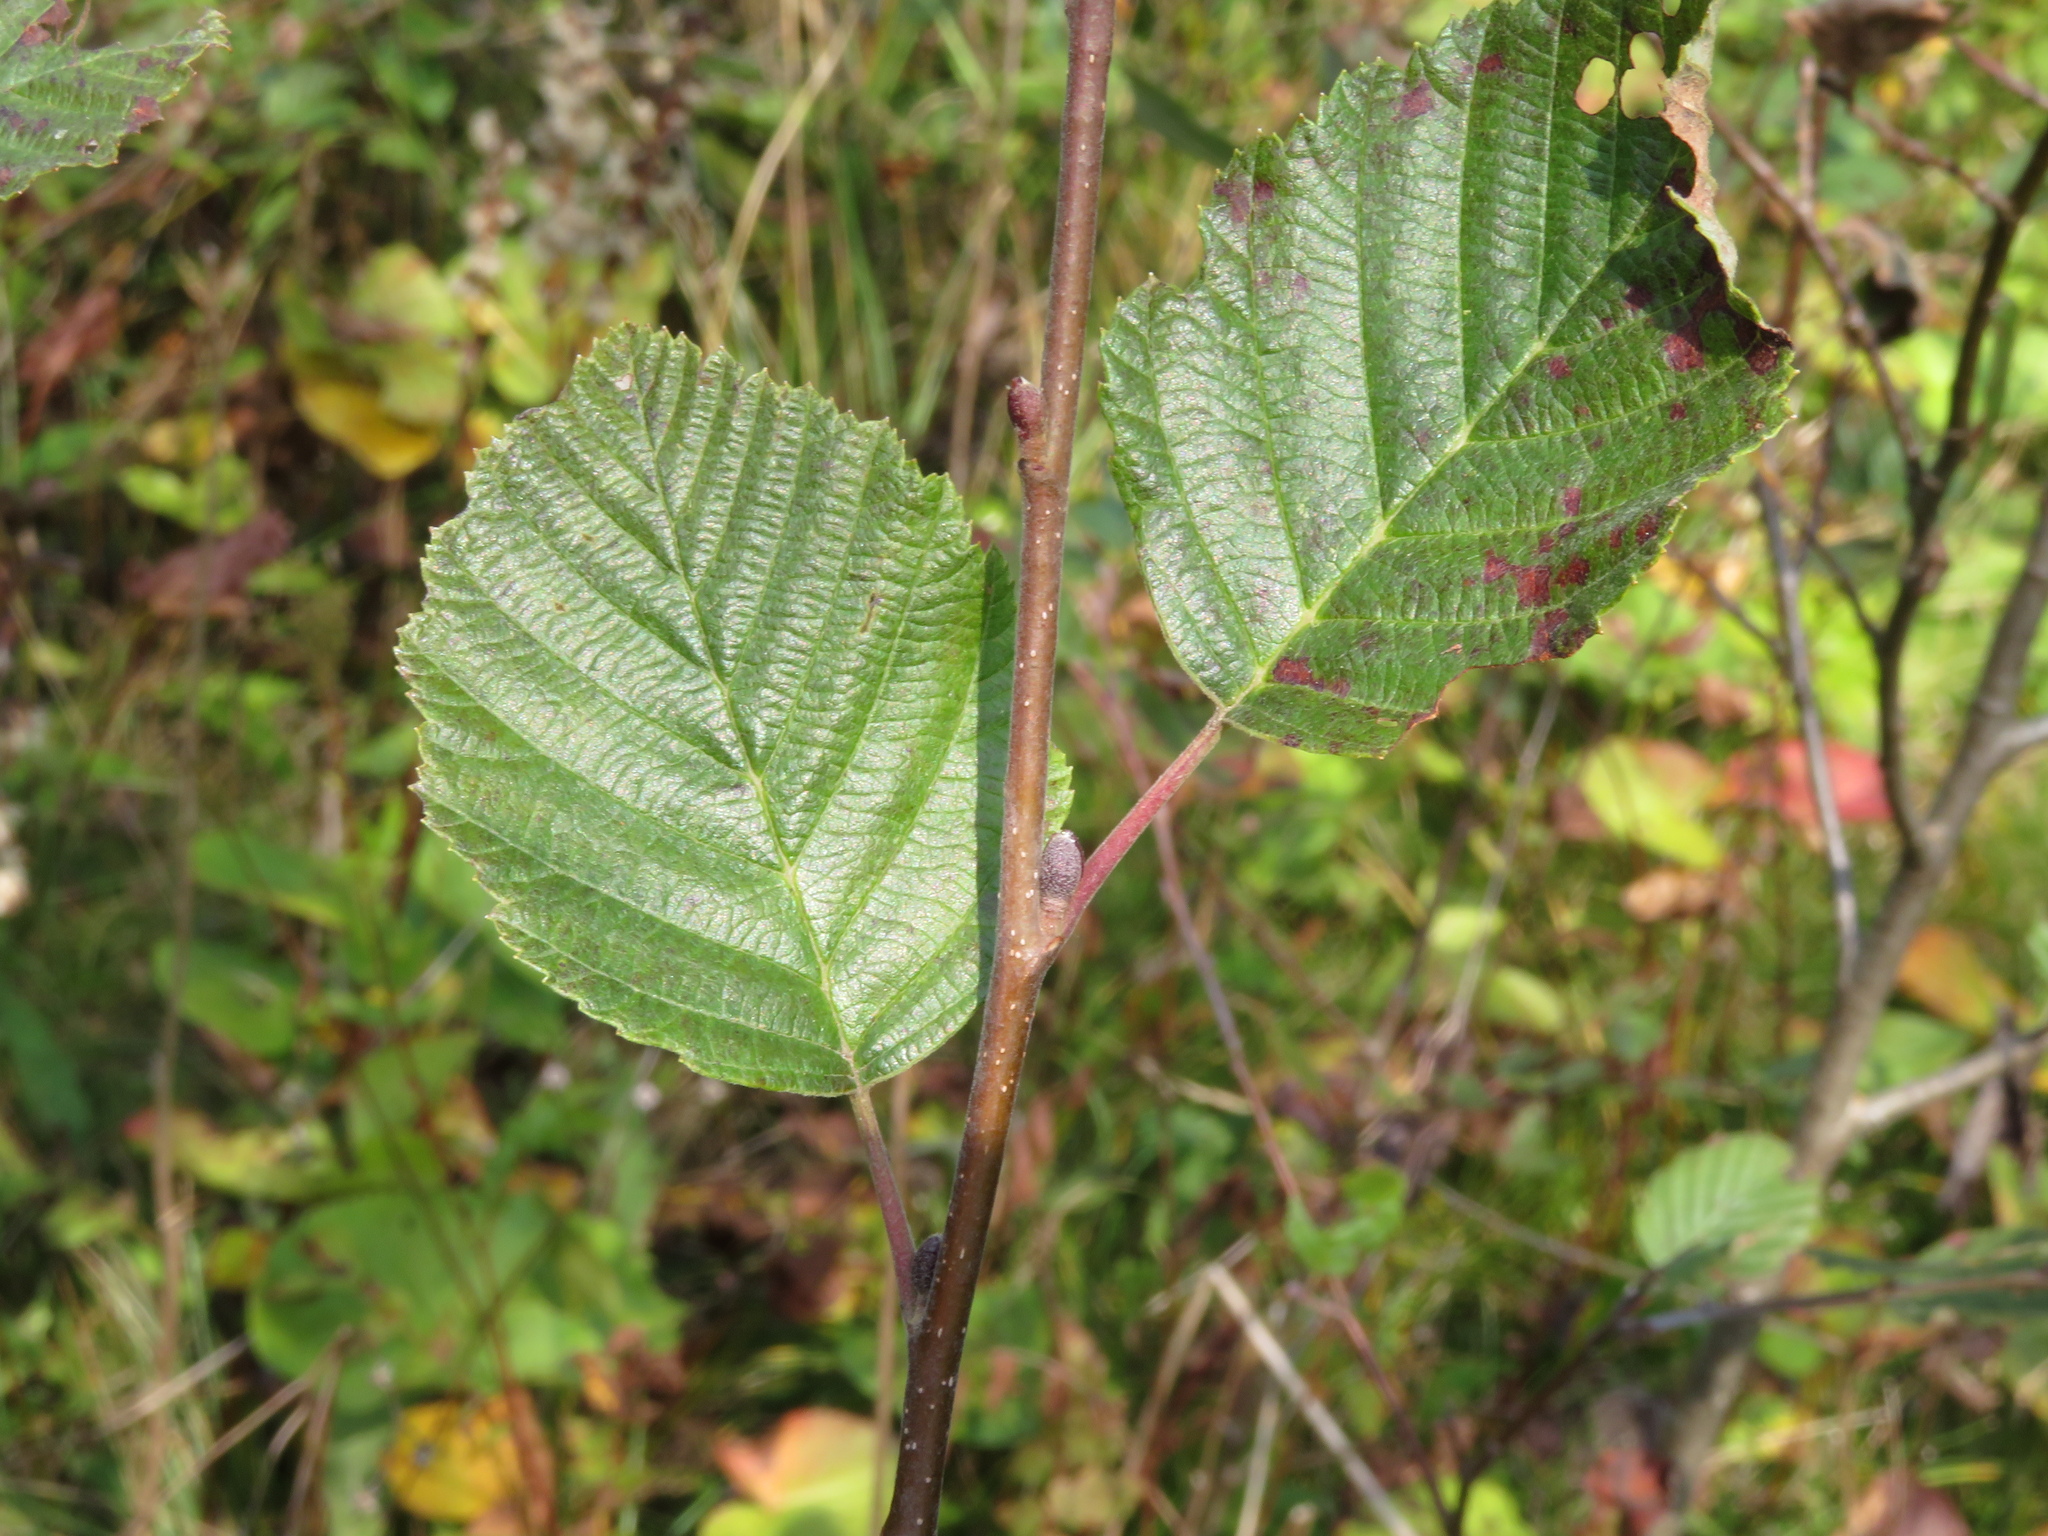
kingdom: Plantae
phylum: Tracheophyta
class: Magnoliopsida
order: Fagales
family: Betulaceae
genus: Alnus
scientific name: Alnus incana
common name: Grey alder
